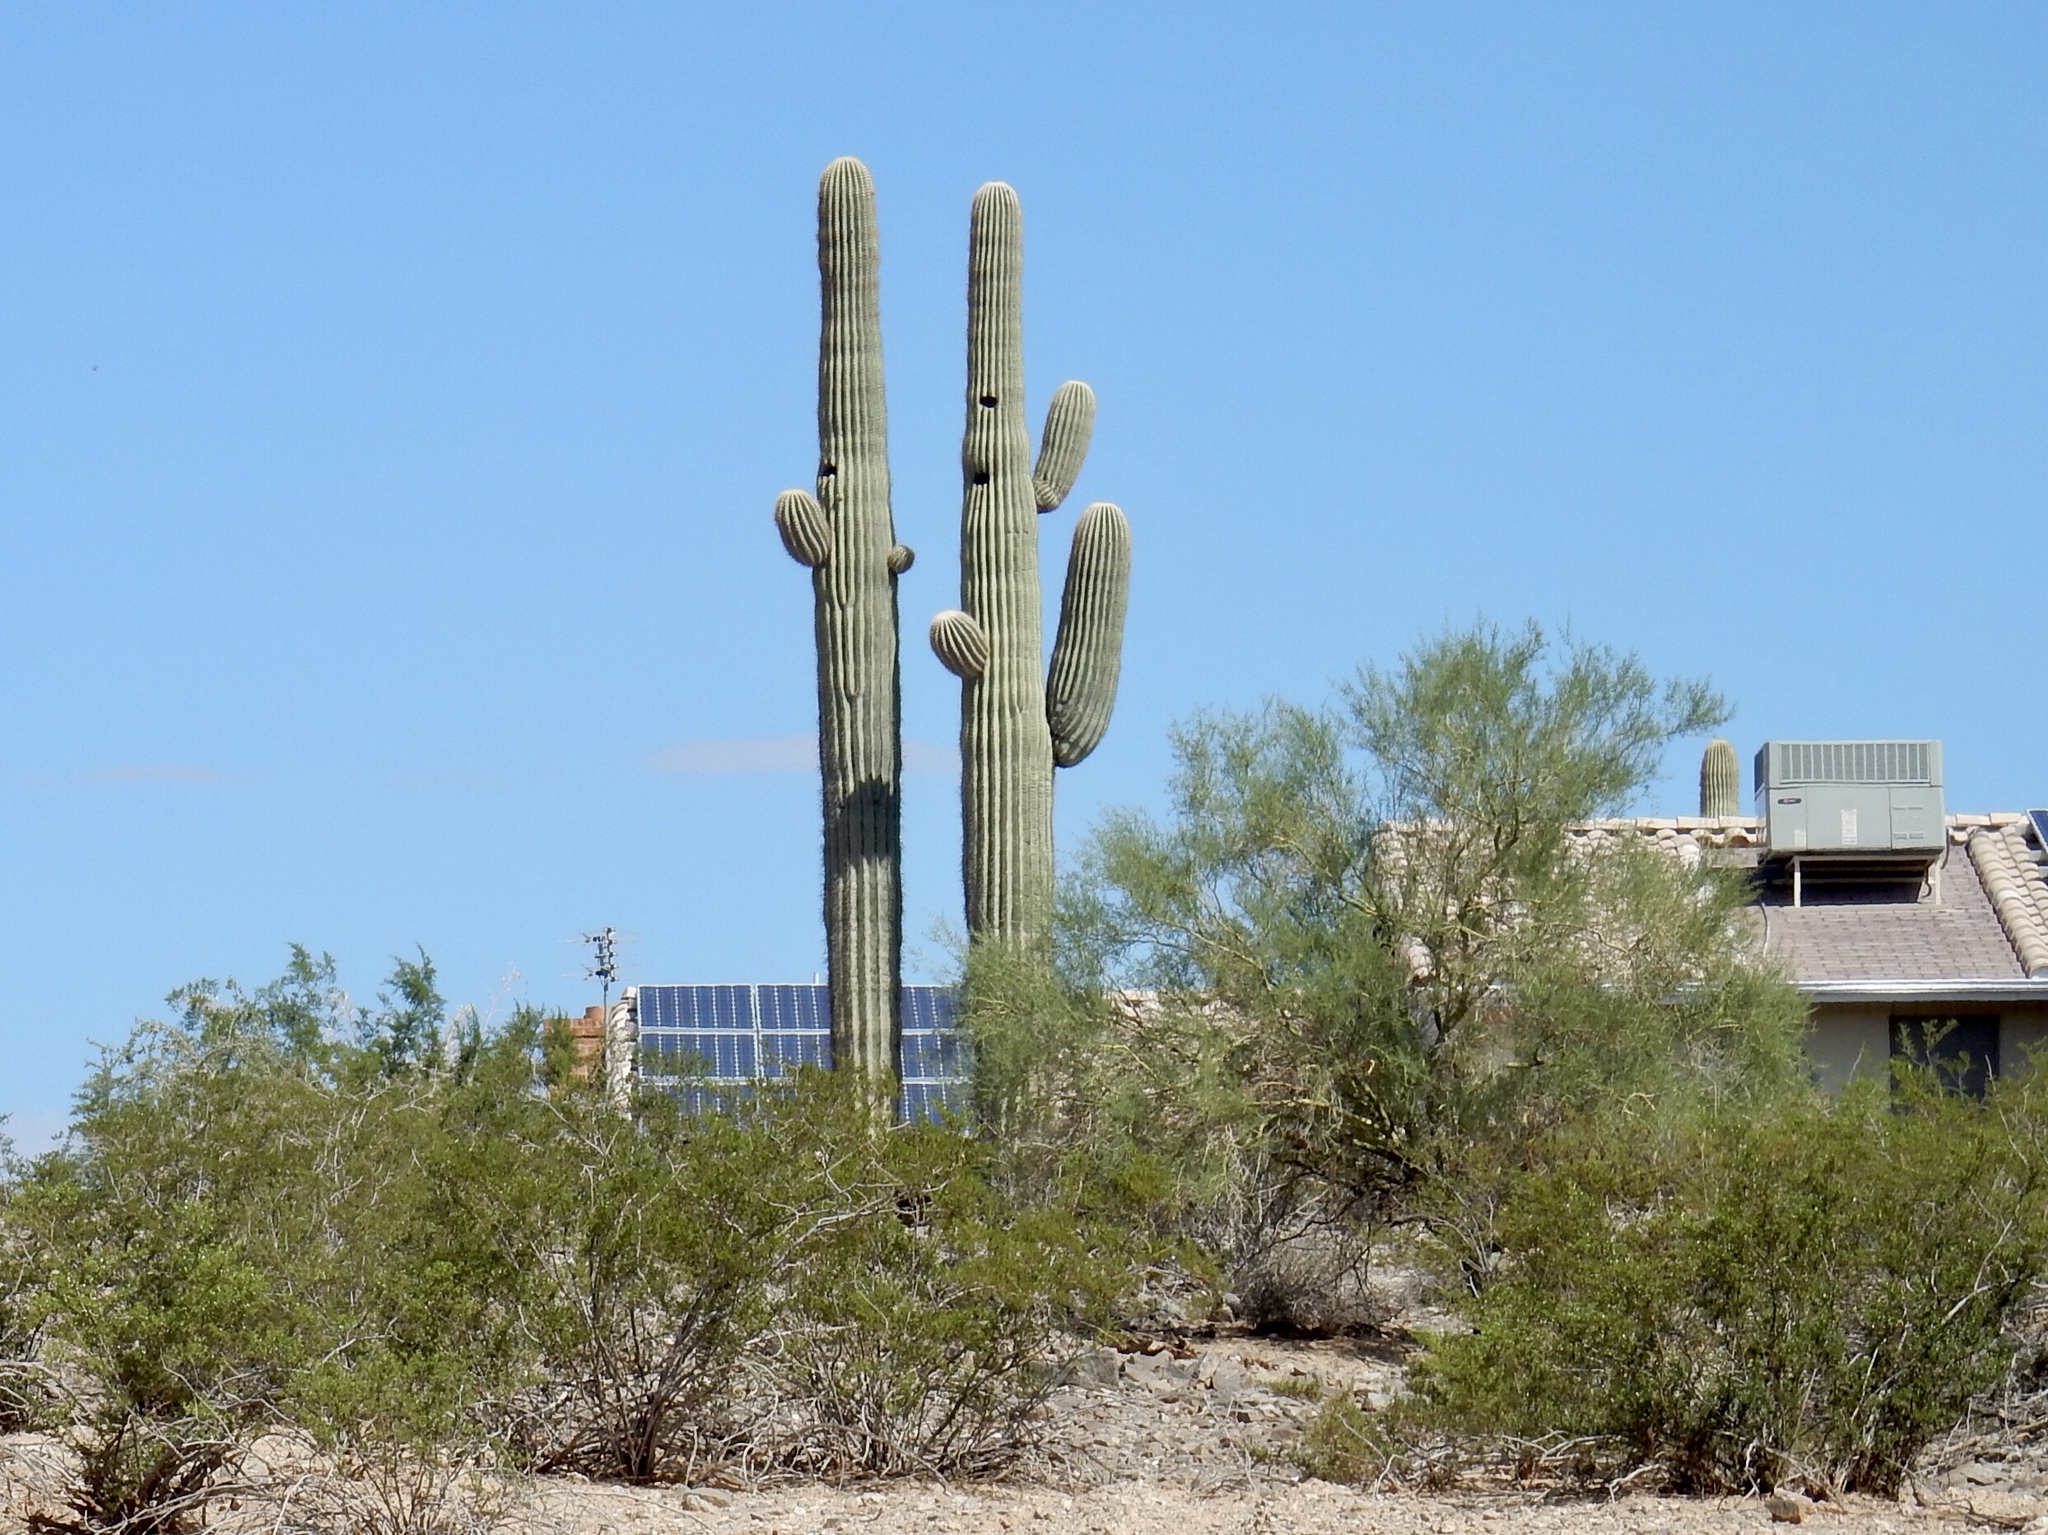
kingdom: Plantae
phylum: Tracheophyta
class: Magnoliopsida
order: Caryophyllales
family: Cactaceae
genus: Carnegiea
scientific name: Carnegiea gigantea
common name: Saguaro
